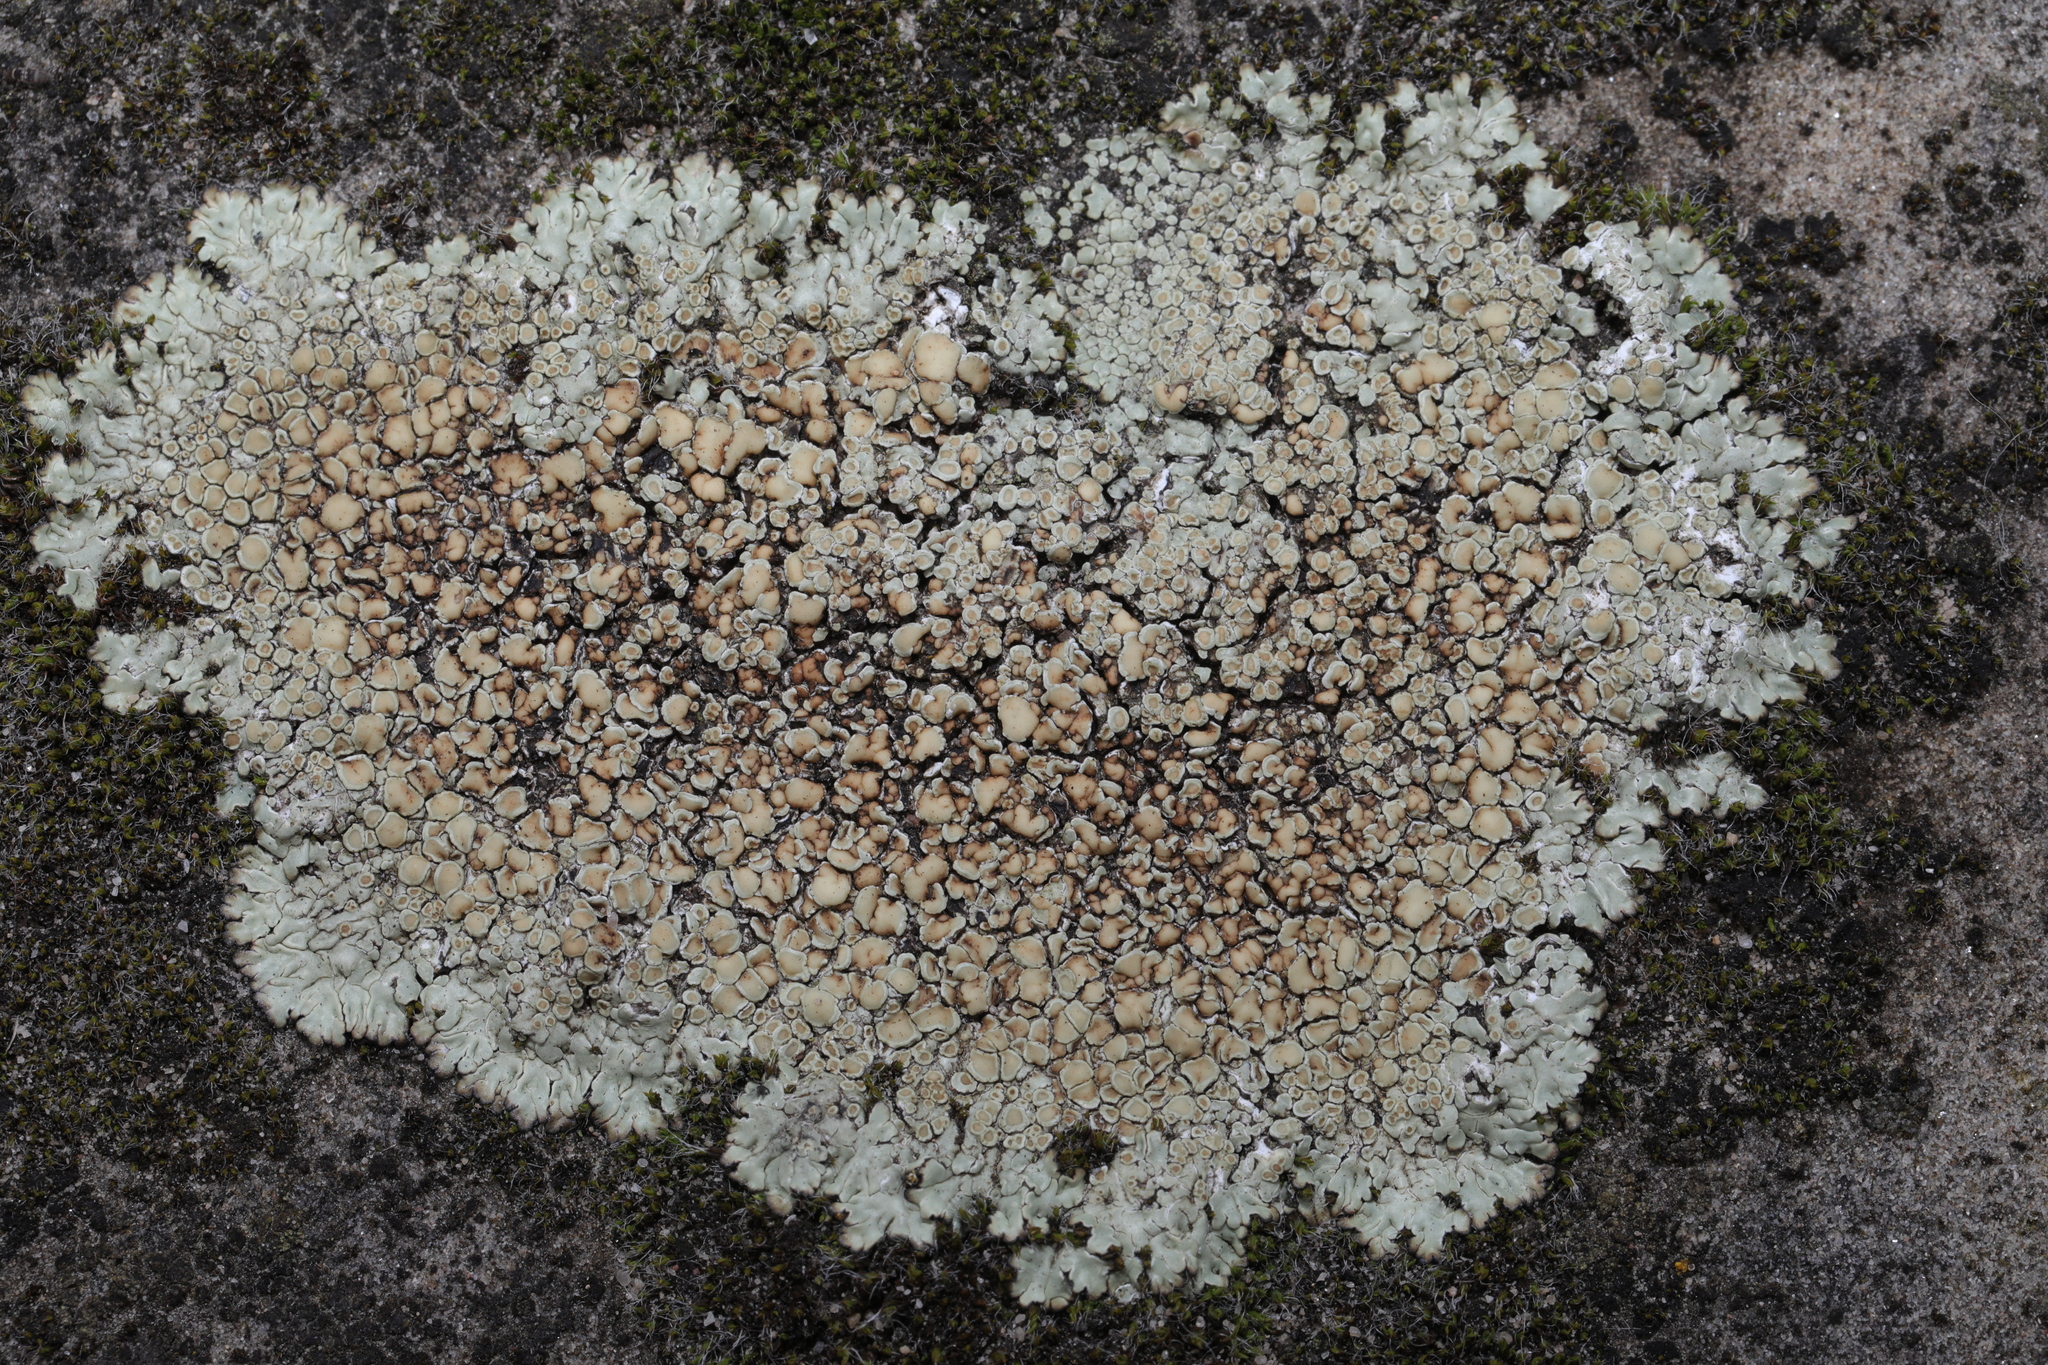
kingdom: Fungi
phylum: Ascomycota
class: Lecanoromycetes
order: Lecanorales
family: Lecanoraceae
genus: Protoparmeliopsis
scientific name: Protoparmeliopsis muralis
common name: Stonewall rim lichen
